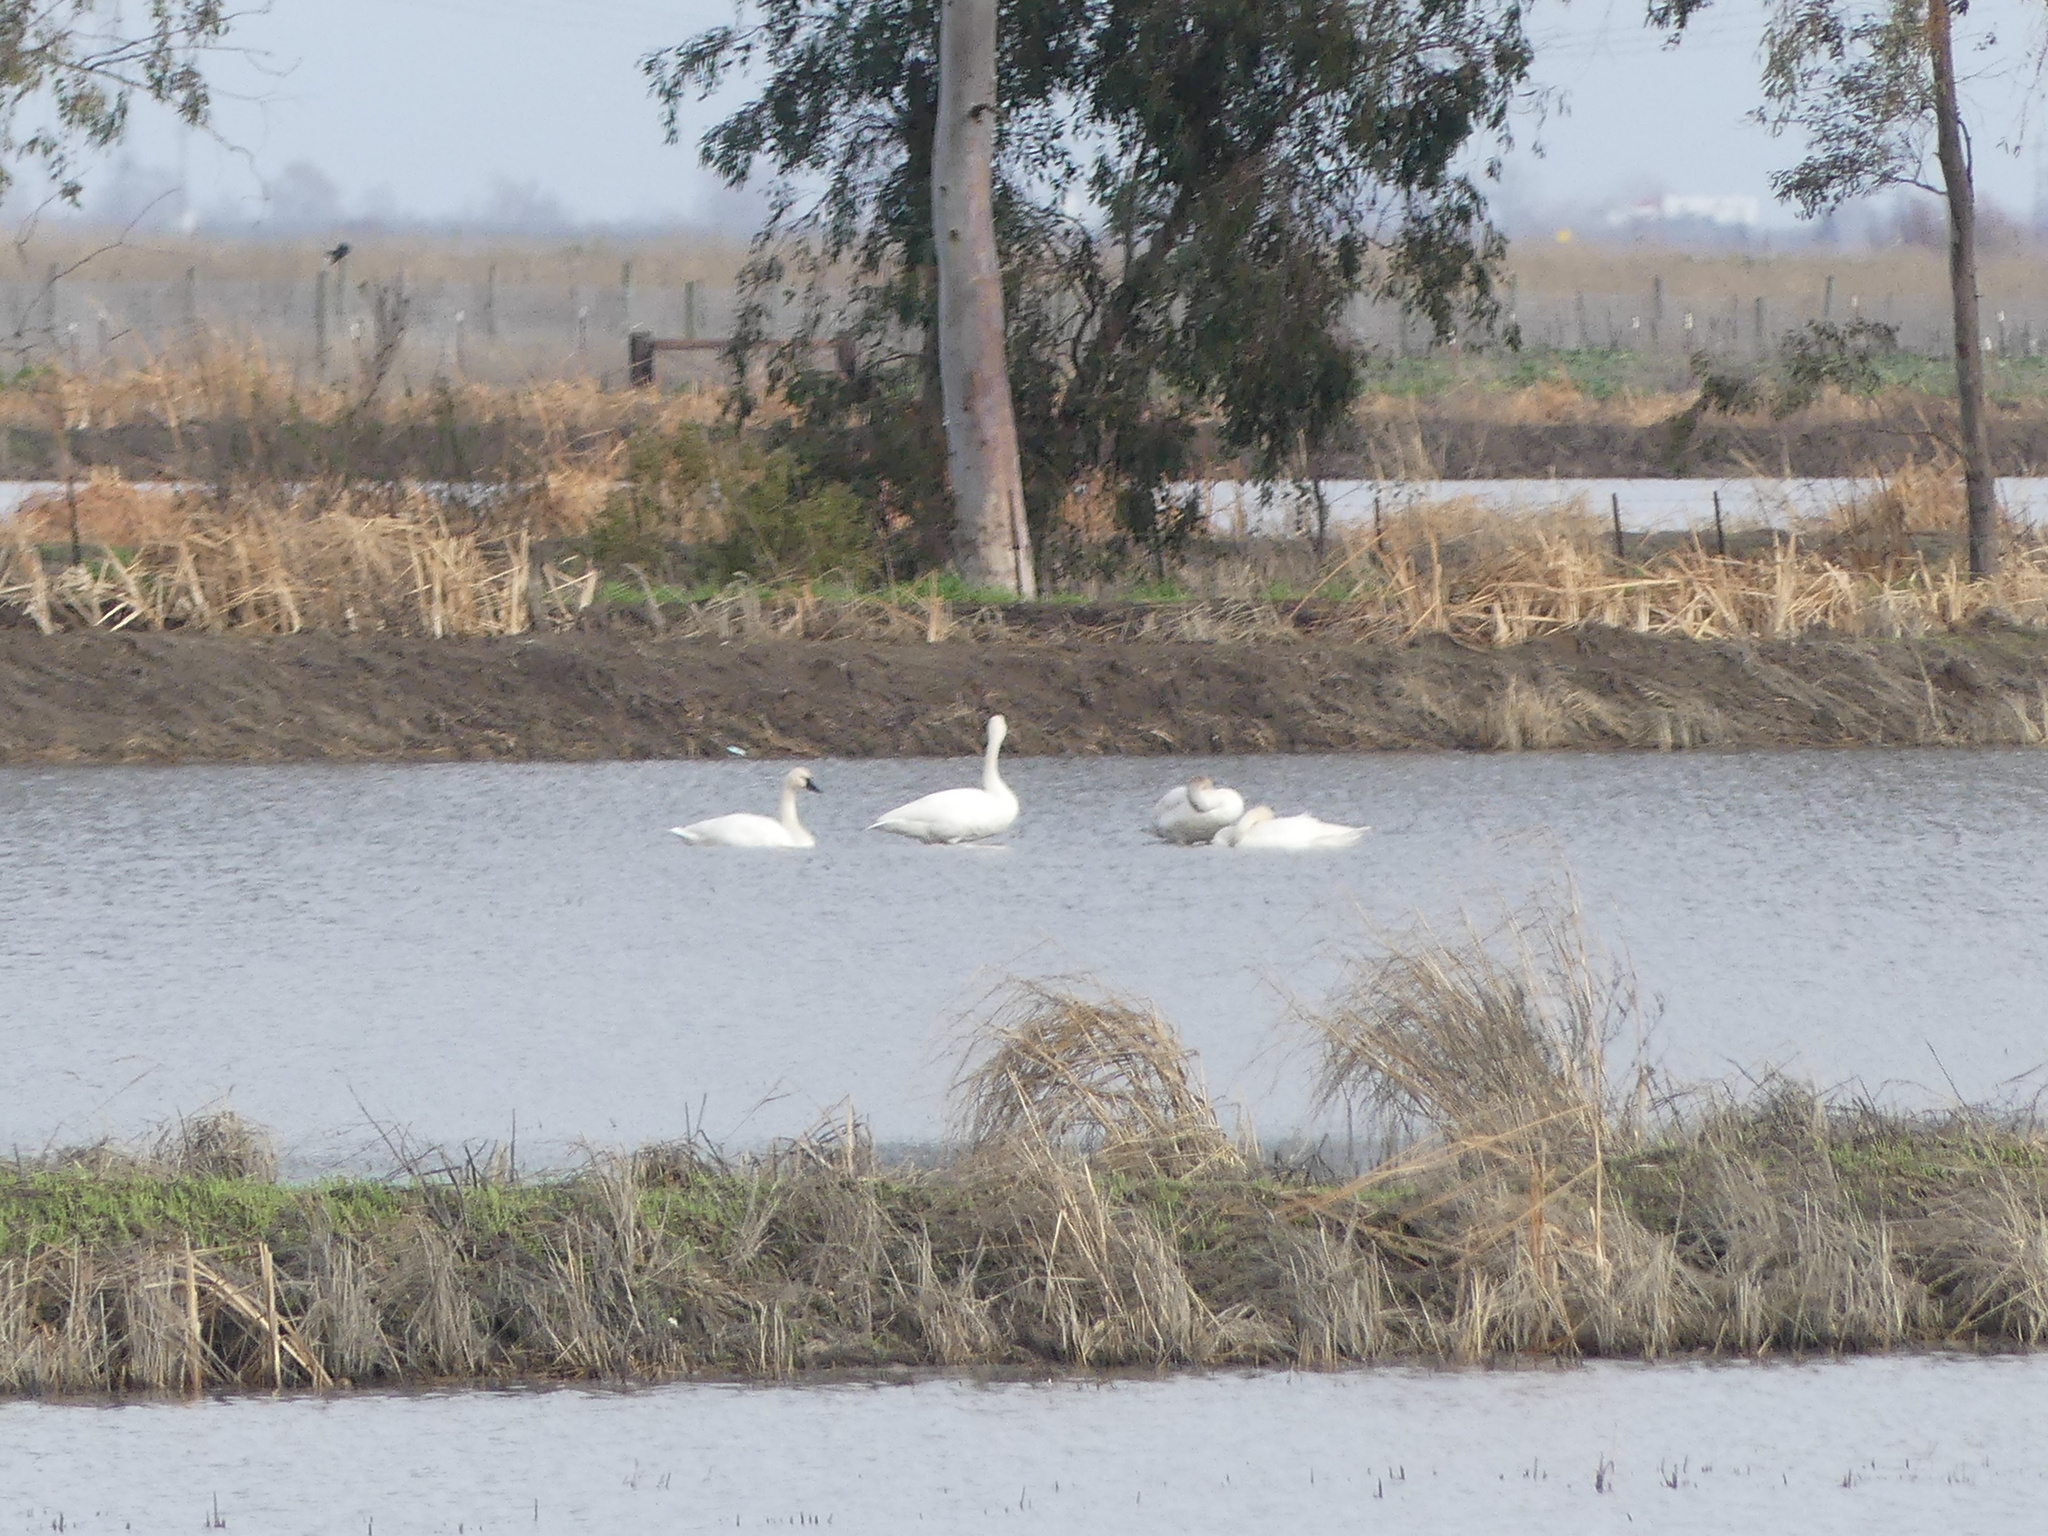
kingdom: Animalia
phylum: Chordata
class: Aves
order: Anseriformes
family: Anatidae
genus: Cygnus
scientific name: Cygnus columbianus
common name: Tundra swan
